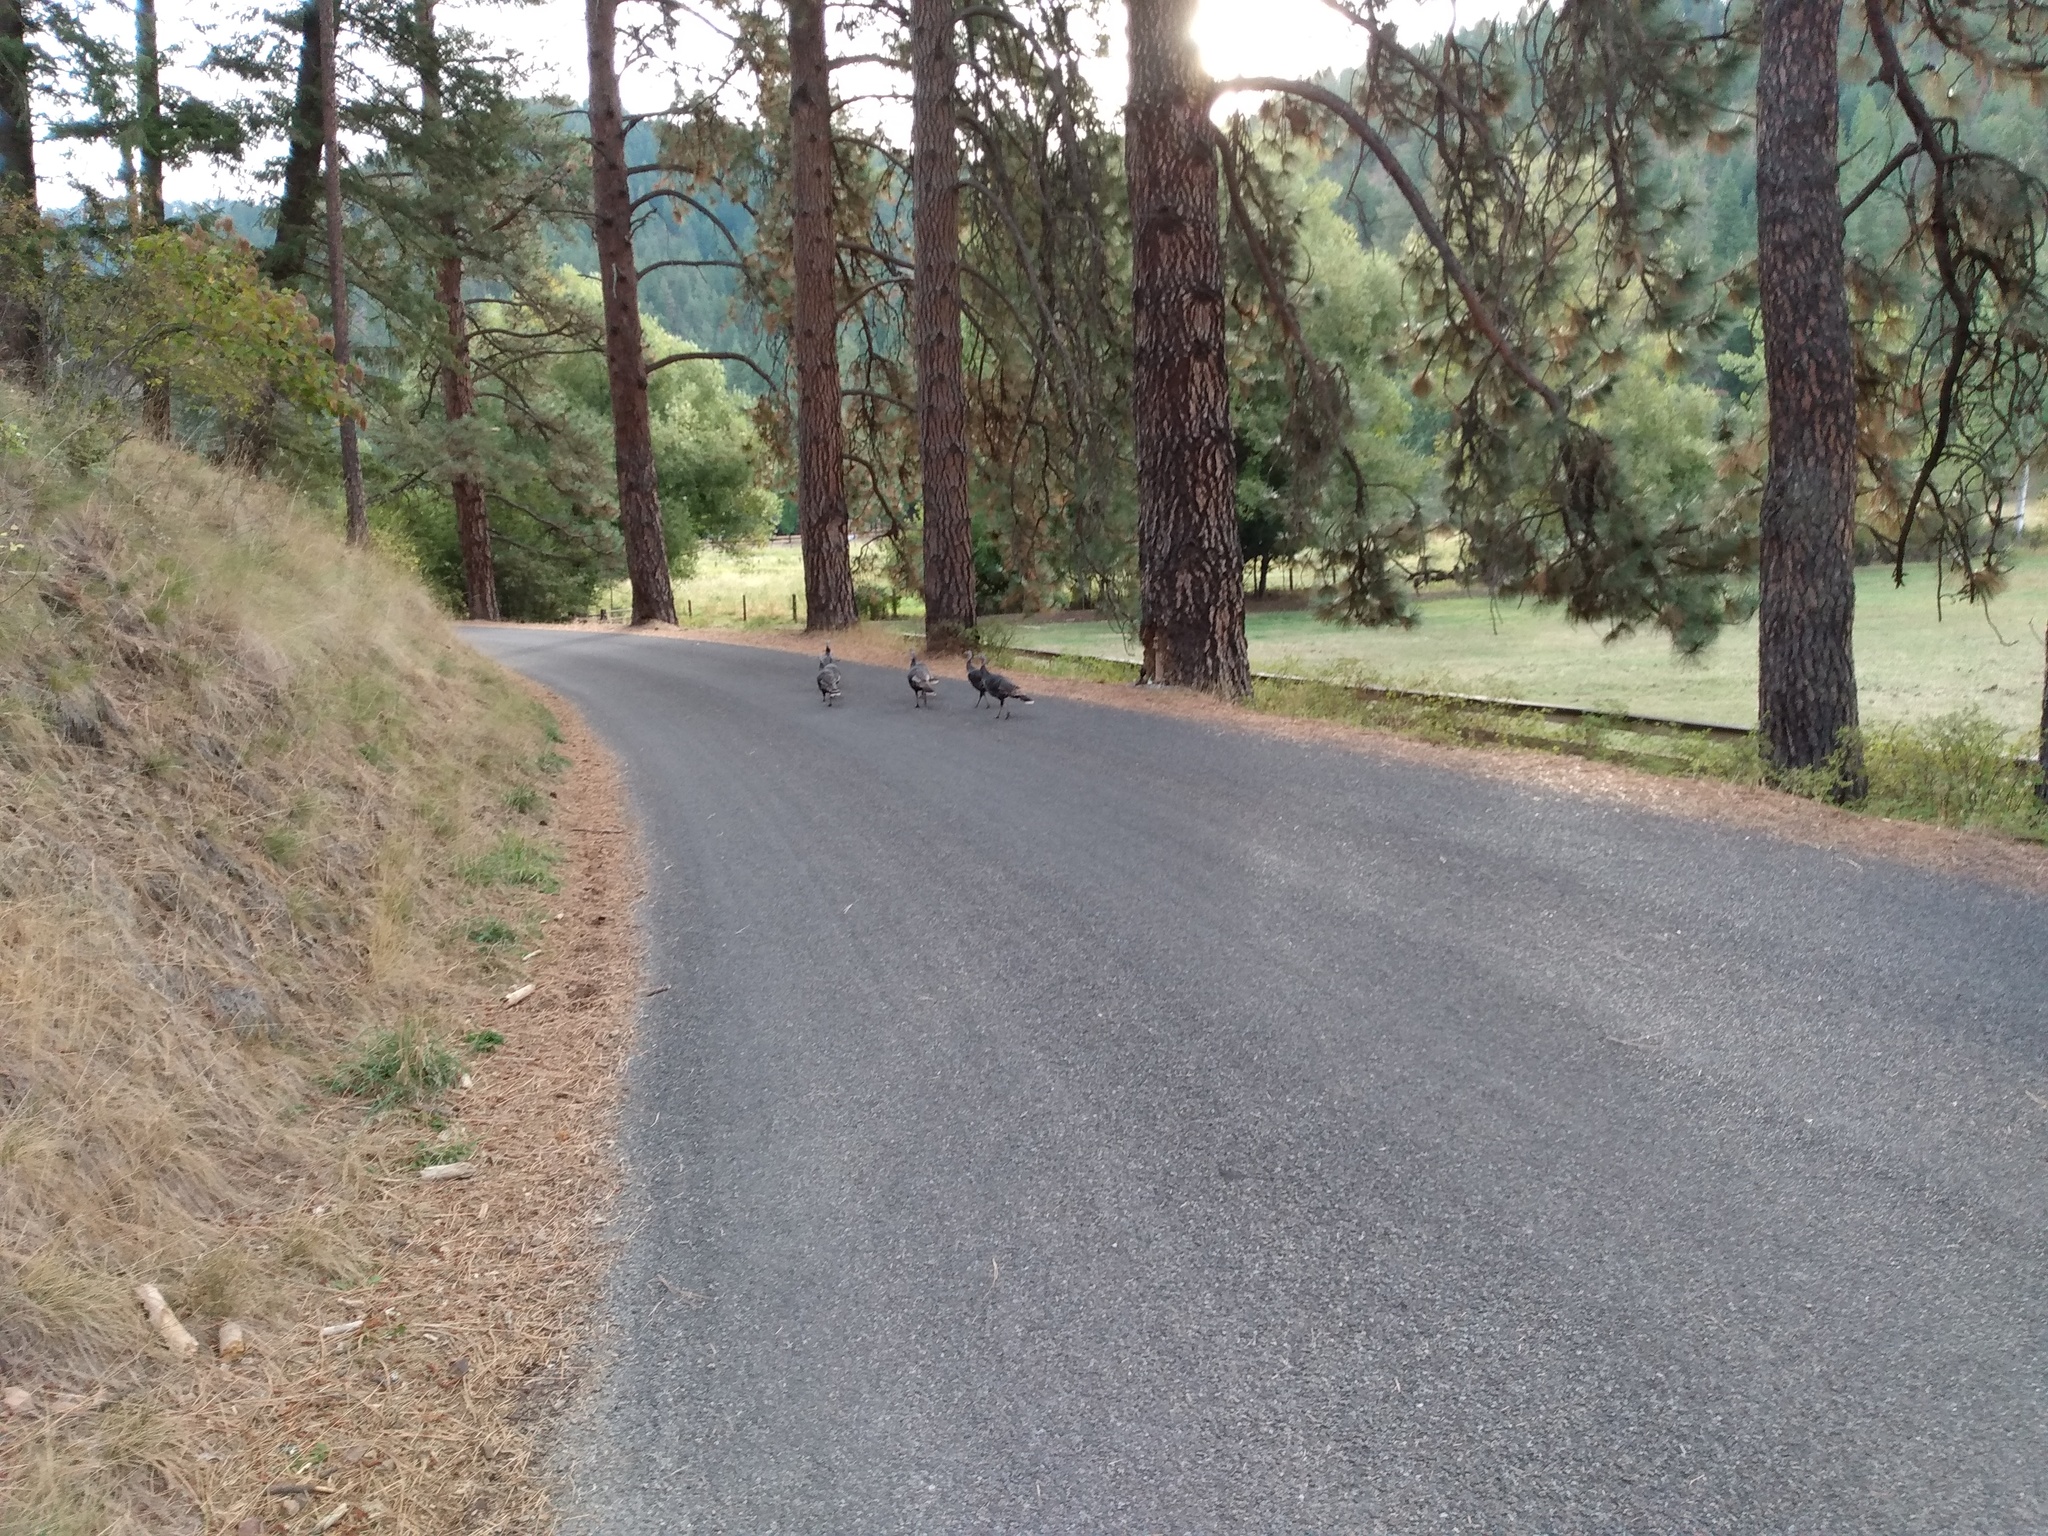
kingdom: Animalia
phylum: Chordata
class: Aves
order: Galliformes
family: Phasianidae
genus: Meleagris
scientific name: Meleagris gallopavo
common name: Wild turkey
